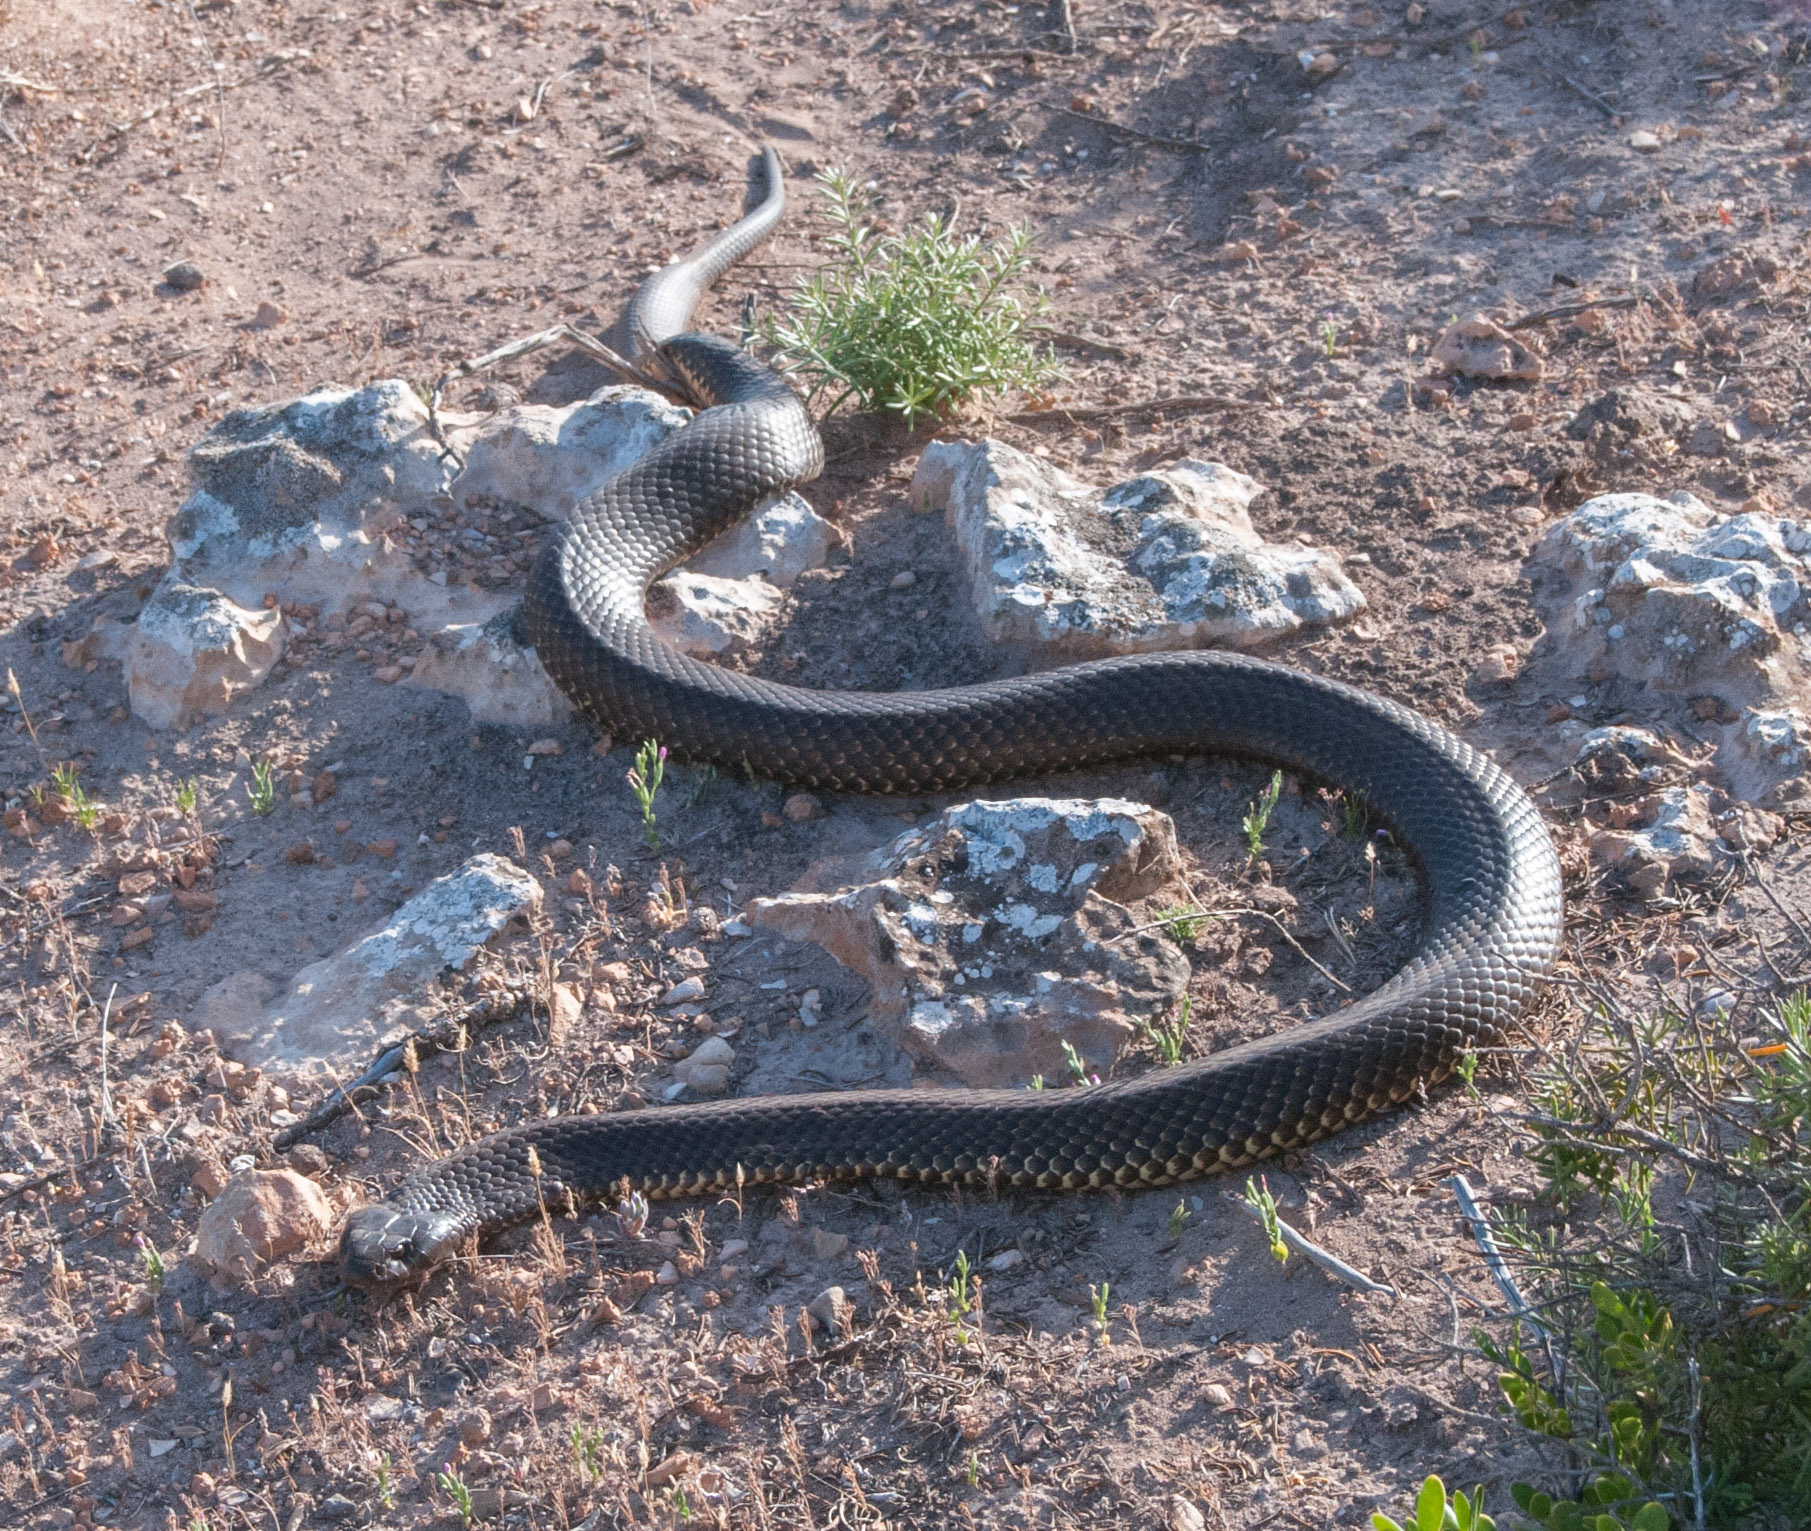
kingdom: Animalia
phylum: Chordata
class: Squamata
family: Elapidae
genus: Pseudechis
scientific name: Pseudechis australis
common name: King brown snake
